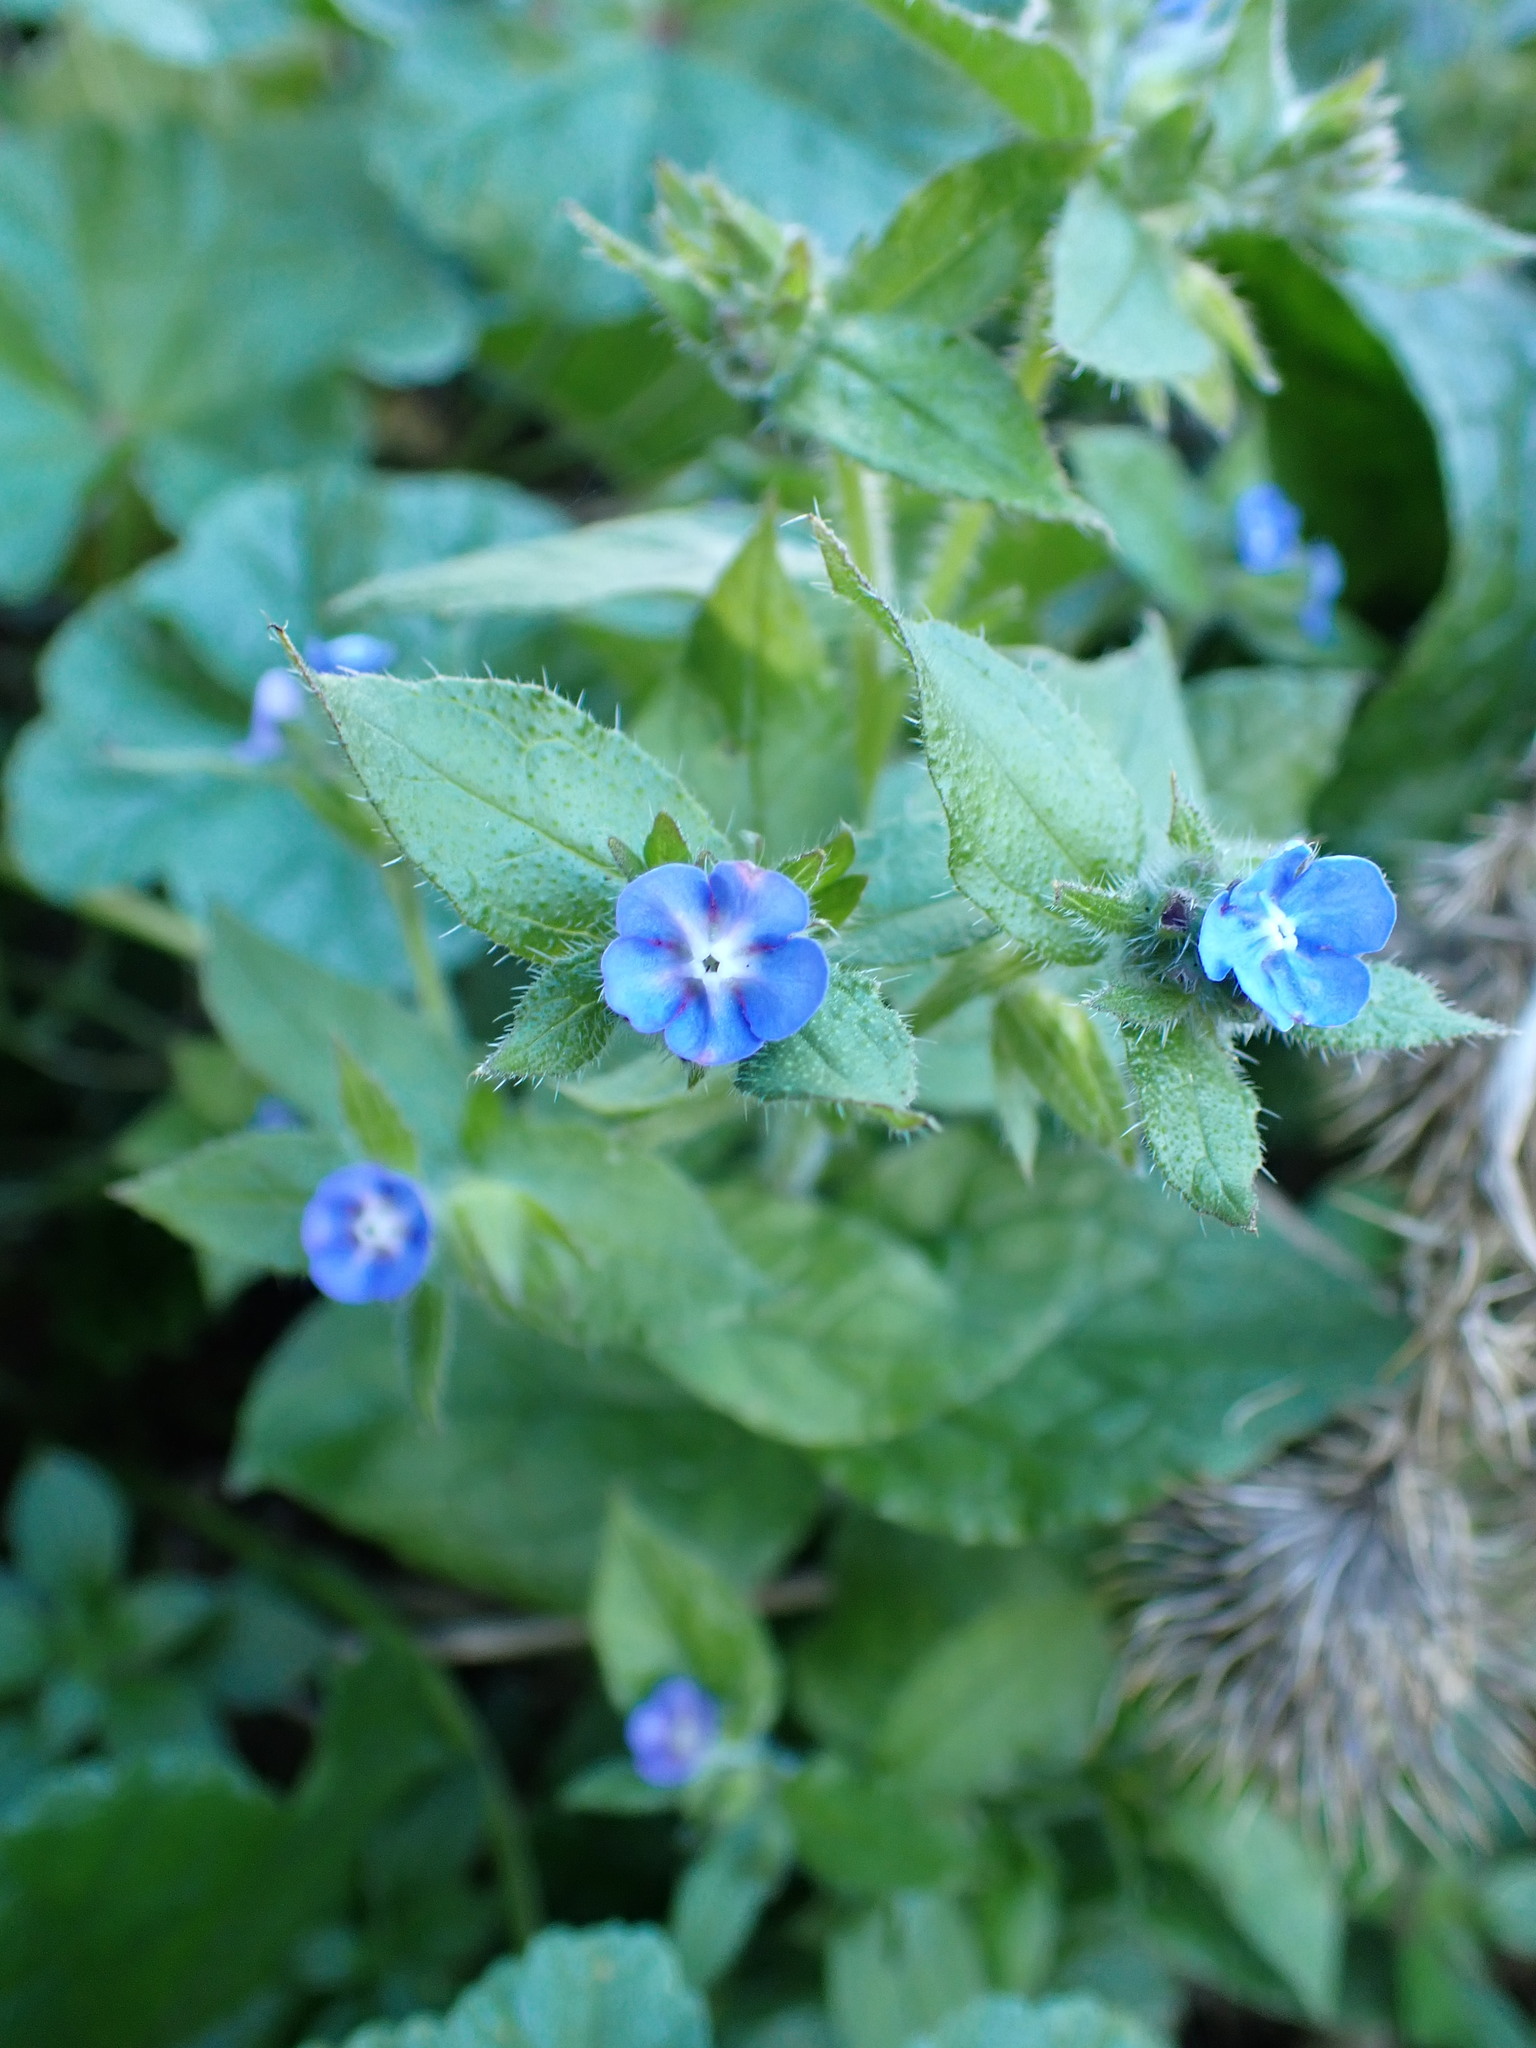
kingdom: Plantae
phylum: Tracheophyta
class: Magnoliopsida
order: Boraginales
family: Boraginaceae
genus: Pentaglottis
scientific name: Pentaglottis sempervirens
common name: Green alkanet
